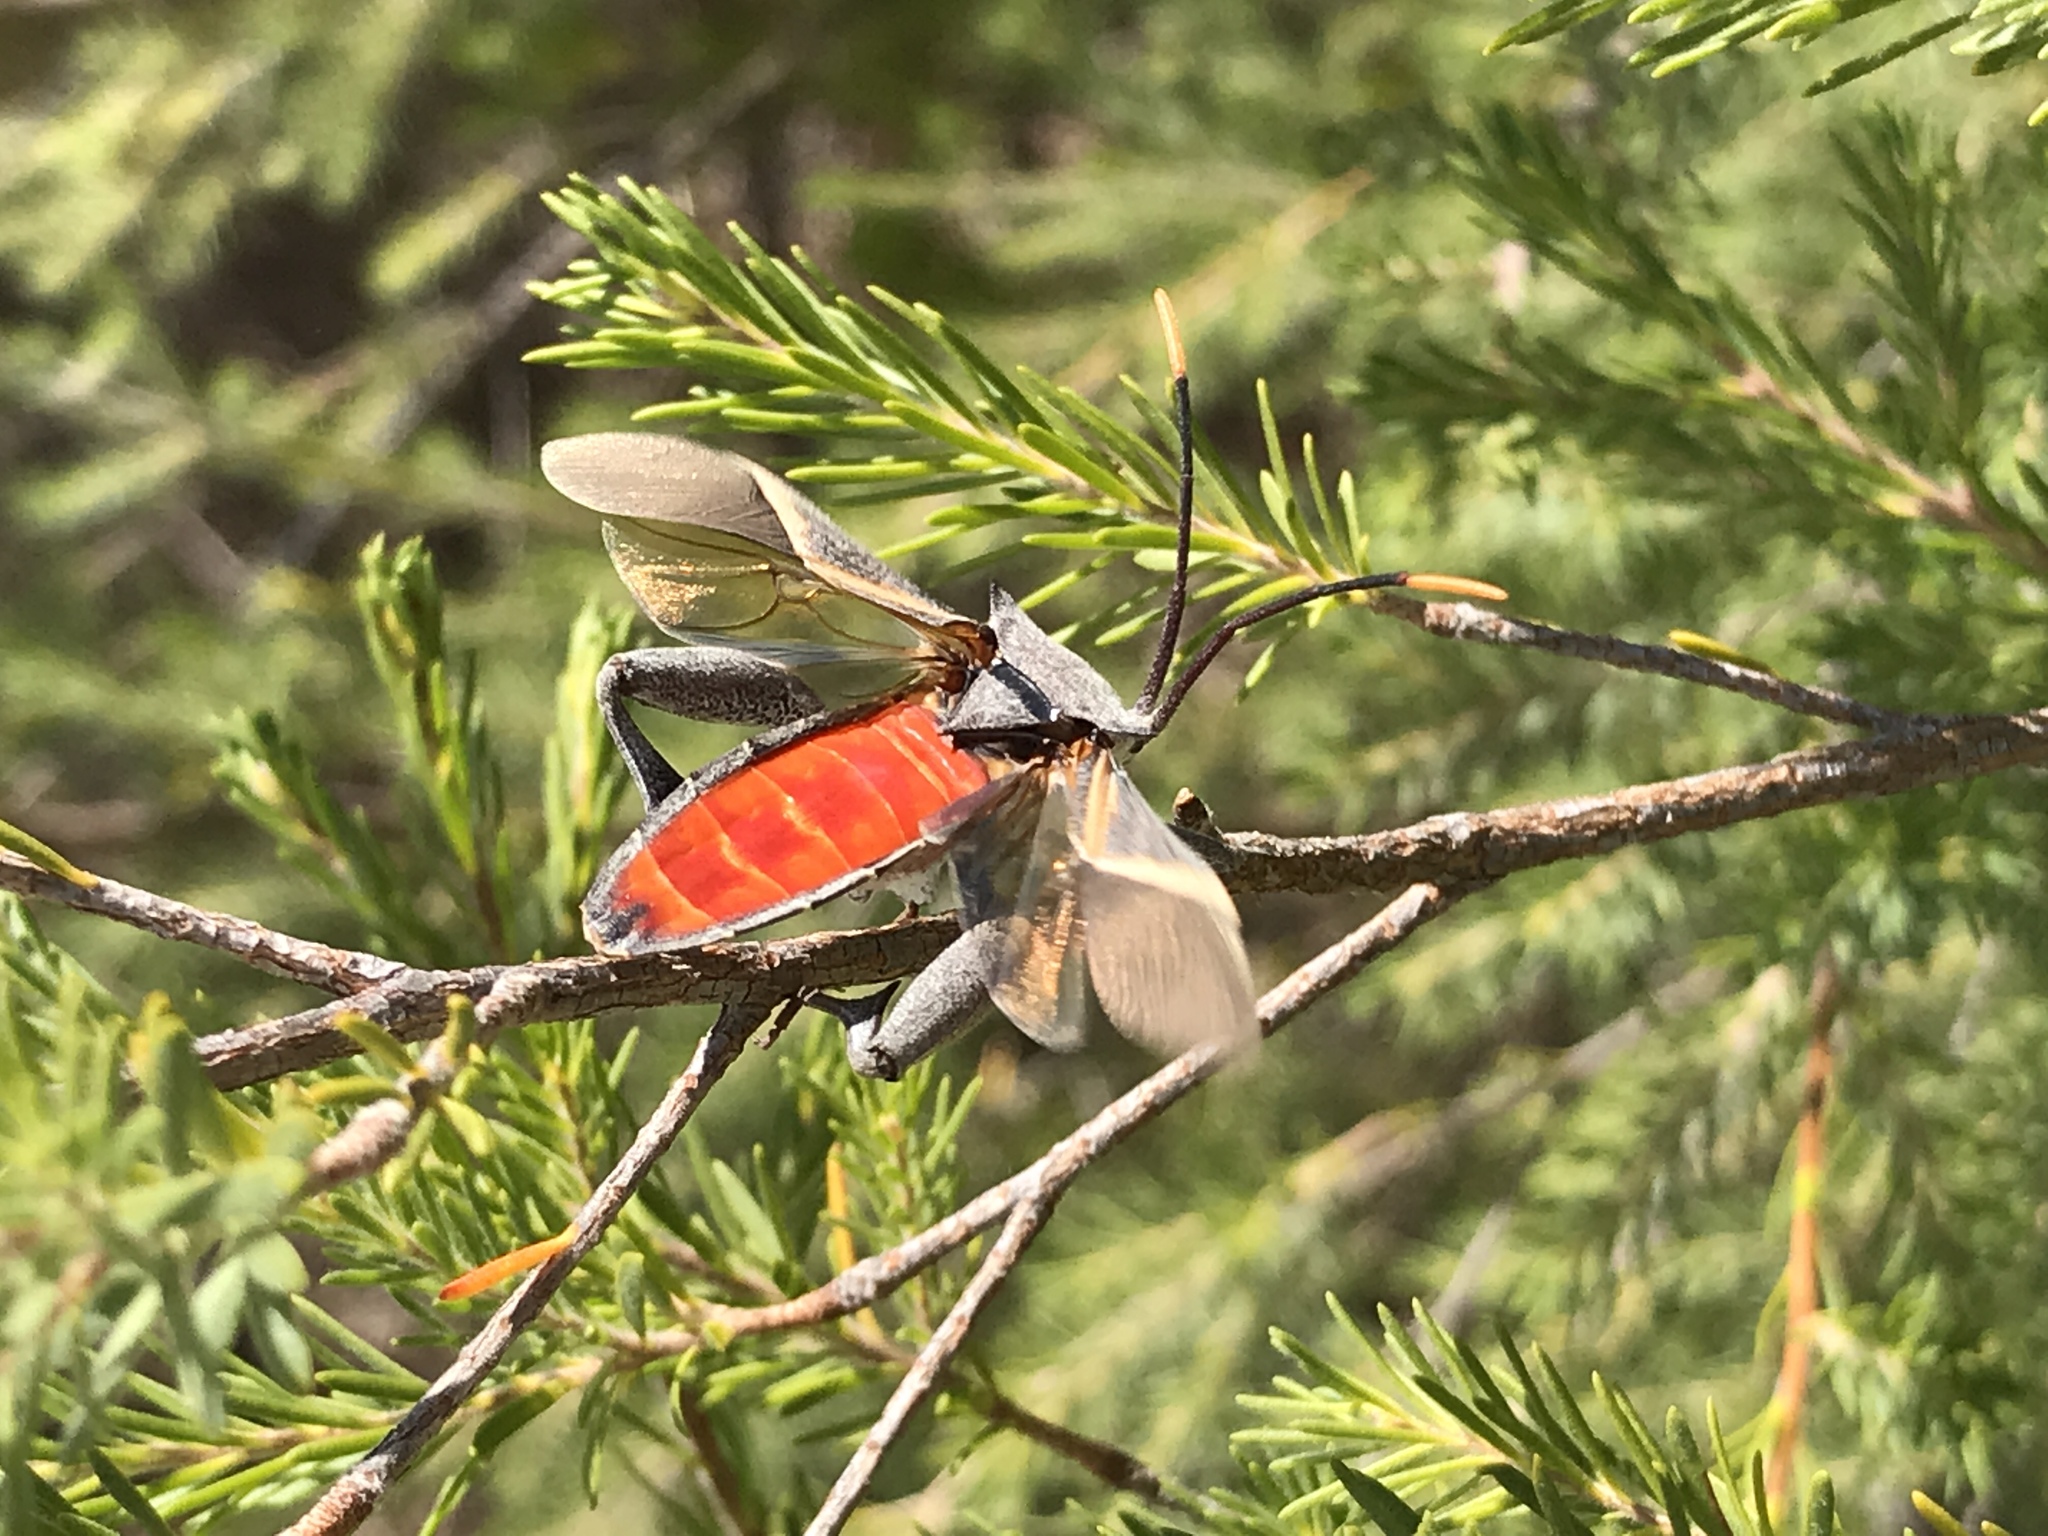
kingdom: Animalia
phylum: Arthropoda
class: Insecta
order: Hemiptera
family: Coreidae
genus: Mictis
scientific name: Mictis profana
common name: Crusader bug
